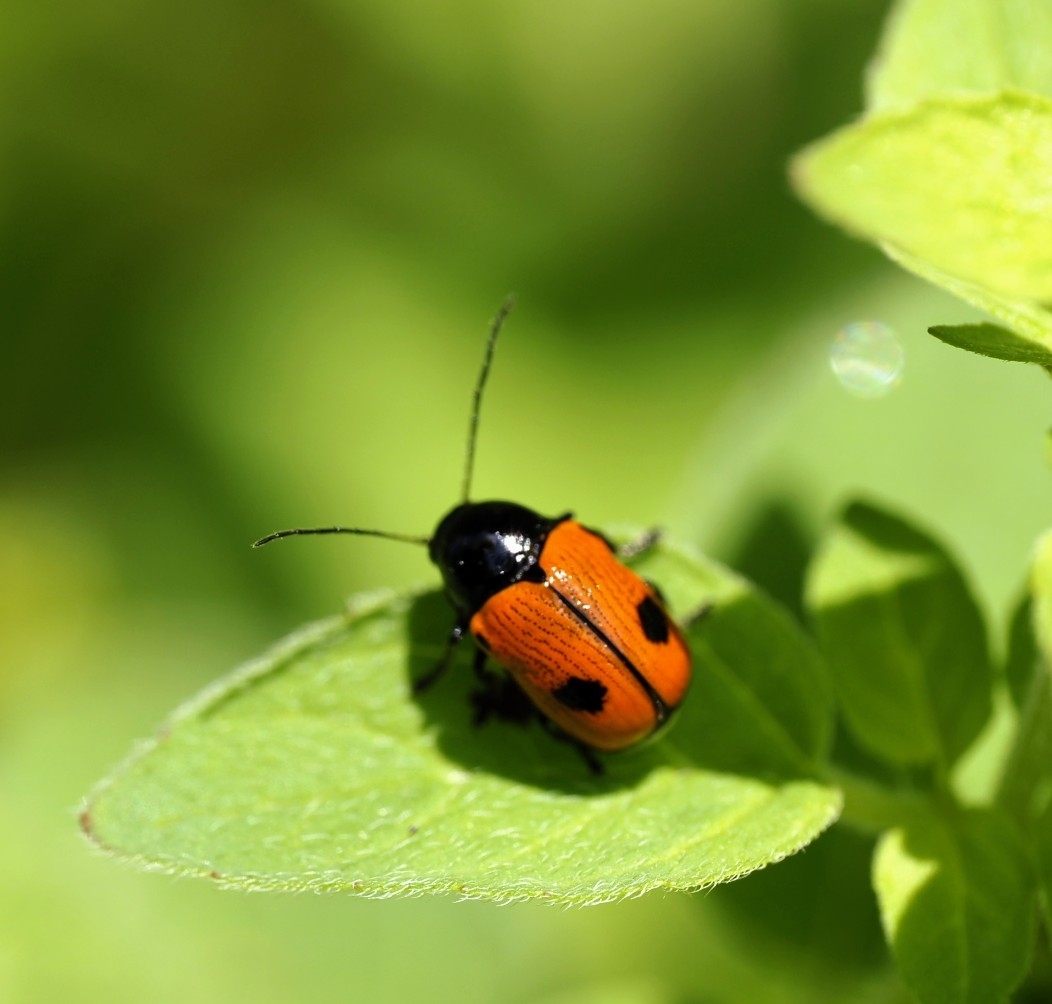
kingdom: Animalia
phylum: Arthropoda
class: Insecta
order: Coleoptera
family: Chrysomelidae
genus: Chiridopsis
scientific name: Chiridopsis bipunctata
